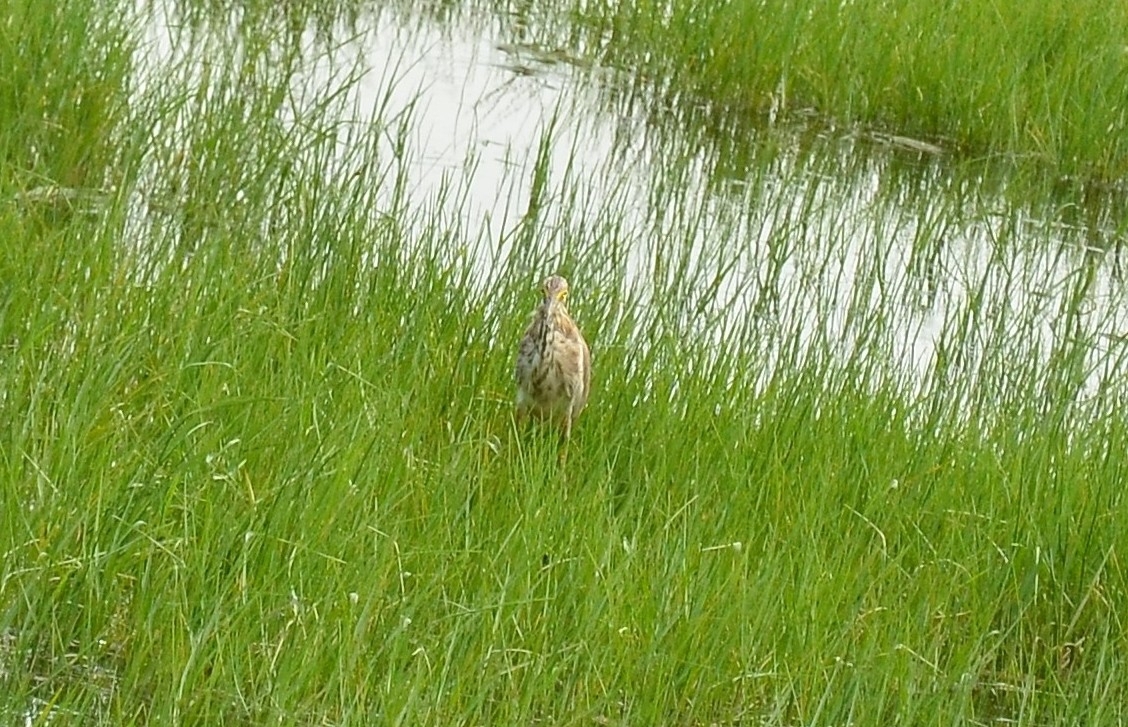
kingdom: Animalia
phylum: Chordata
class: Aves
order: Pelecaniformes
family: Ardeidae
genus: Ardeola
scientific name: Ardeola grayii
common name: Indian pond heron
